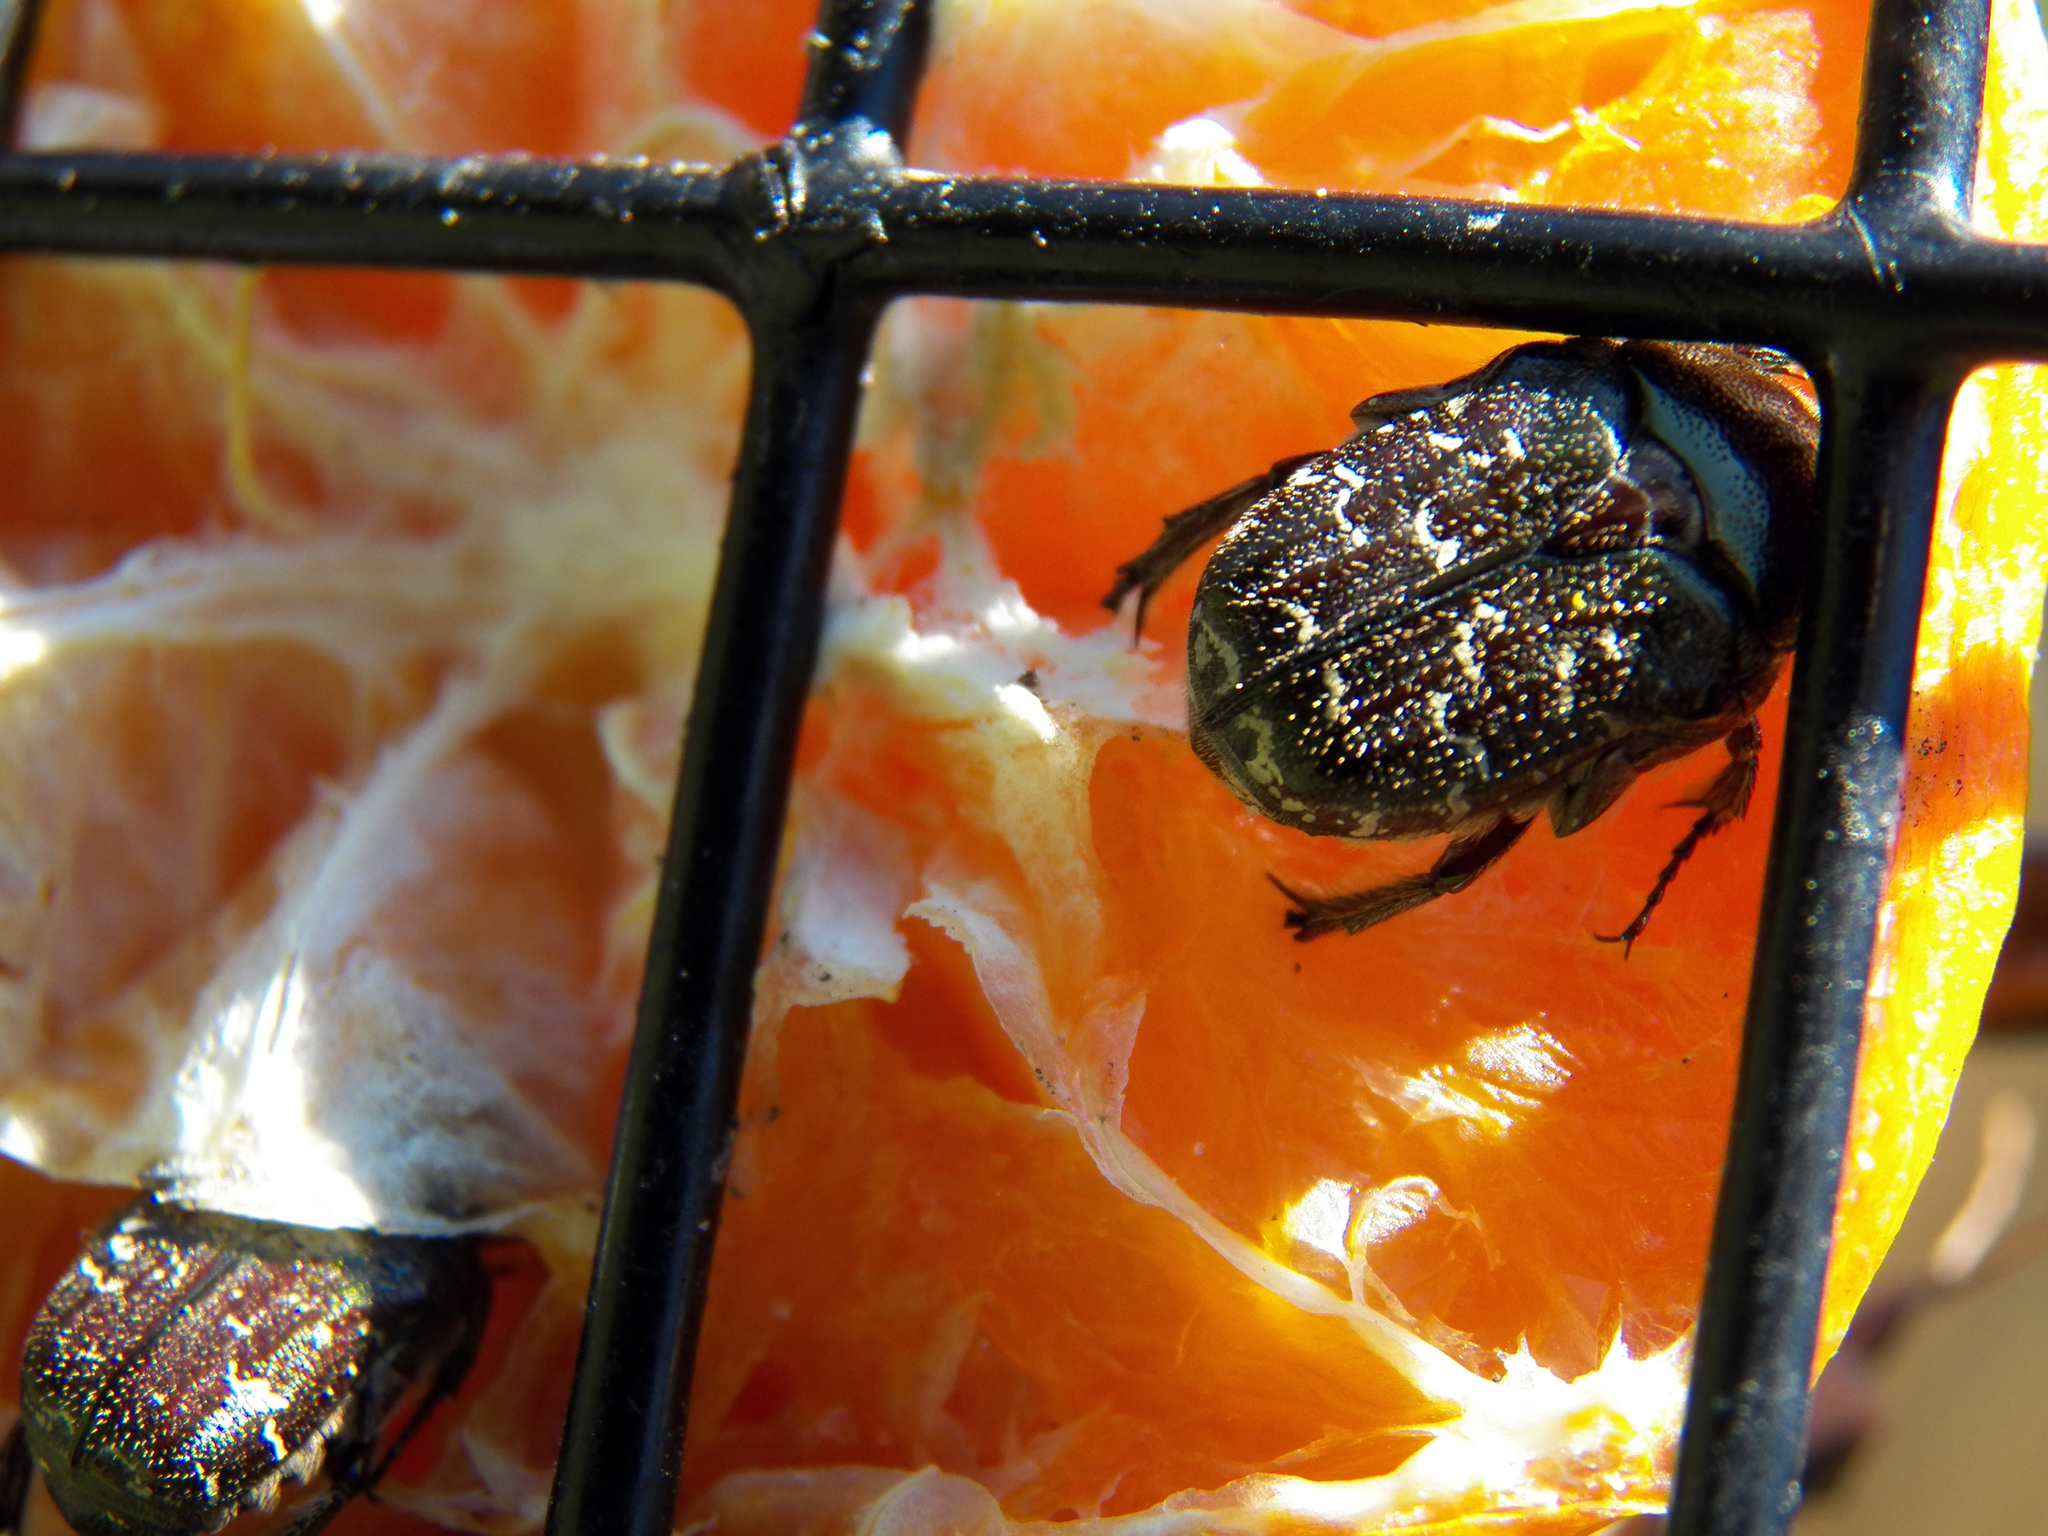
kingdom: Animalia
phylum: Arthropoda
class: Insecta
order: Coleoptera
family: Scarabaeidae
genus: Euphoria
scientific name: Euphoria sepulcralis
